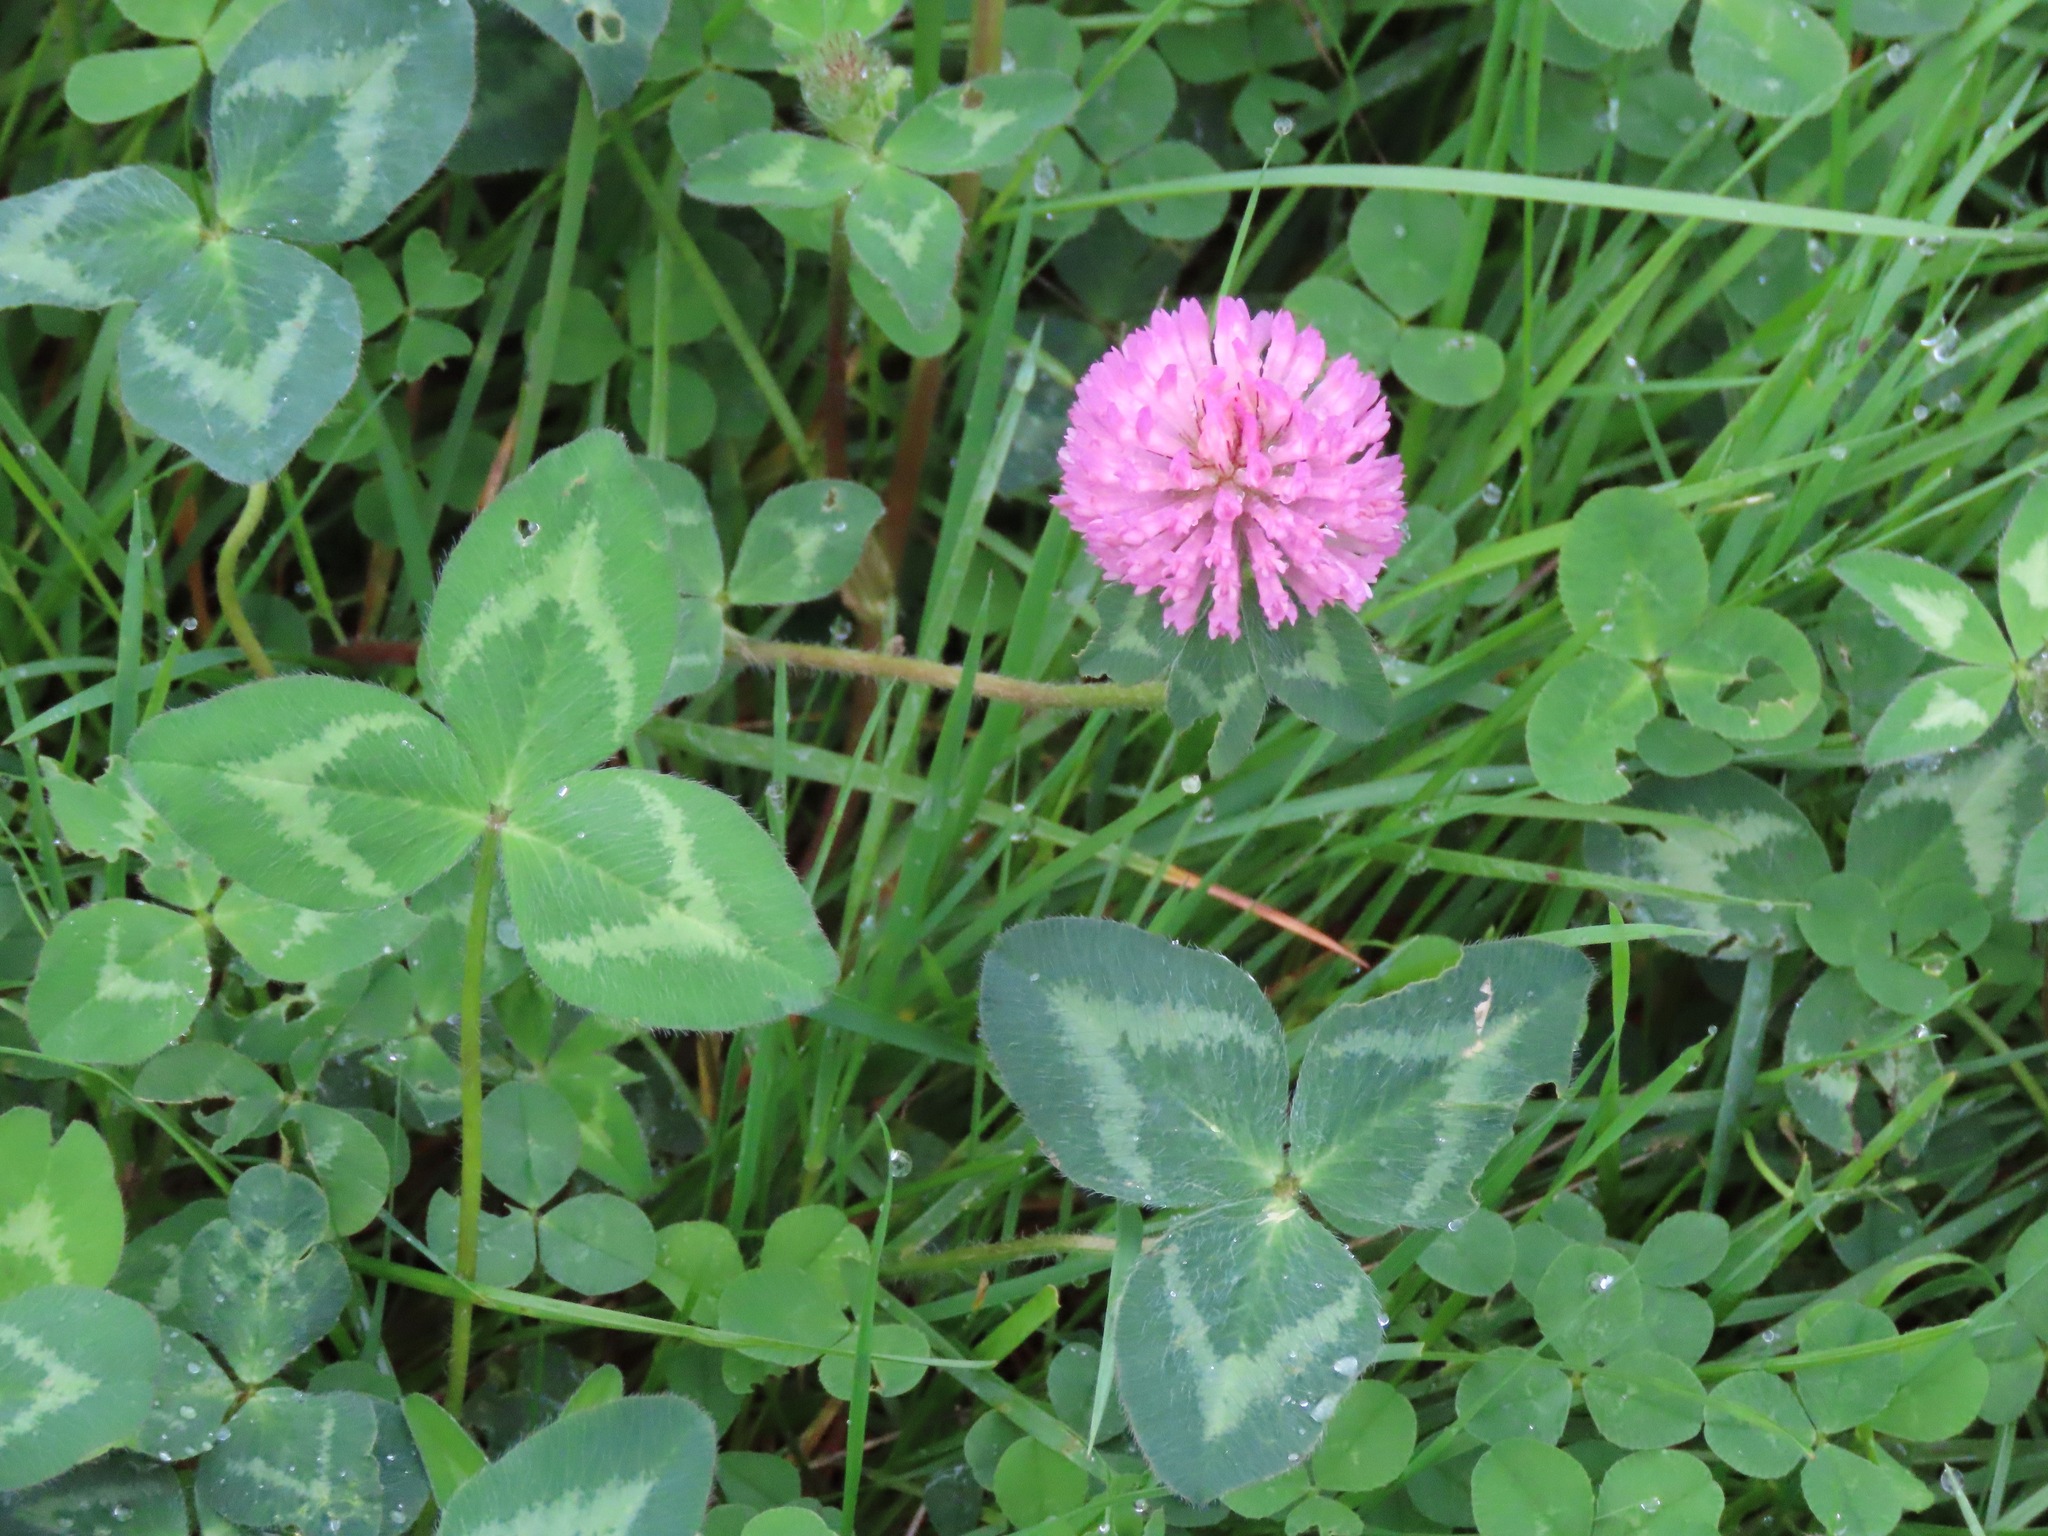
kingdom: Plantae
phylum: Tracheophyta
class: Magnoliopsida
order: Fabales
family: Fabaceae
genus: Trifolium
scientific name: Trifolium pratense
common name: Red clover
